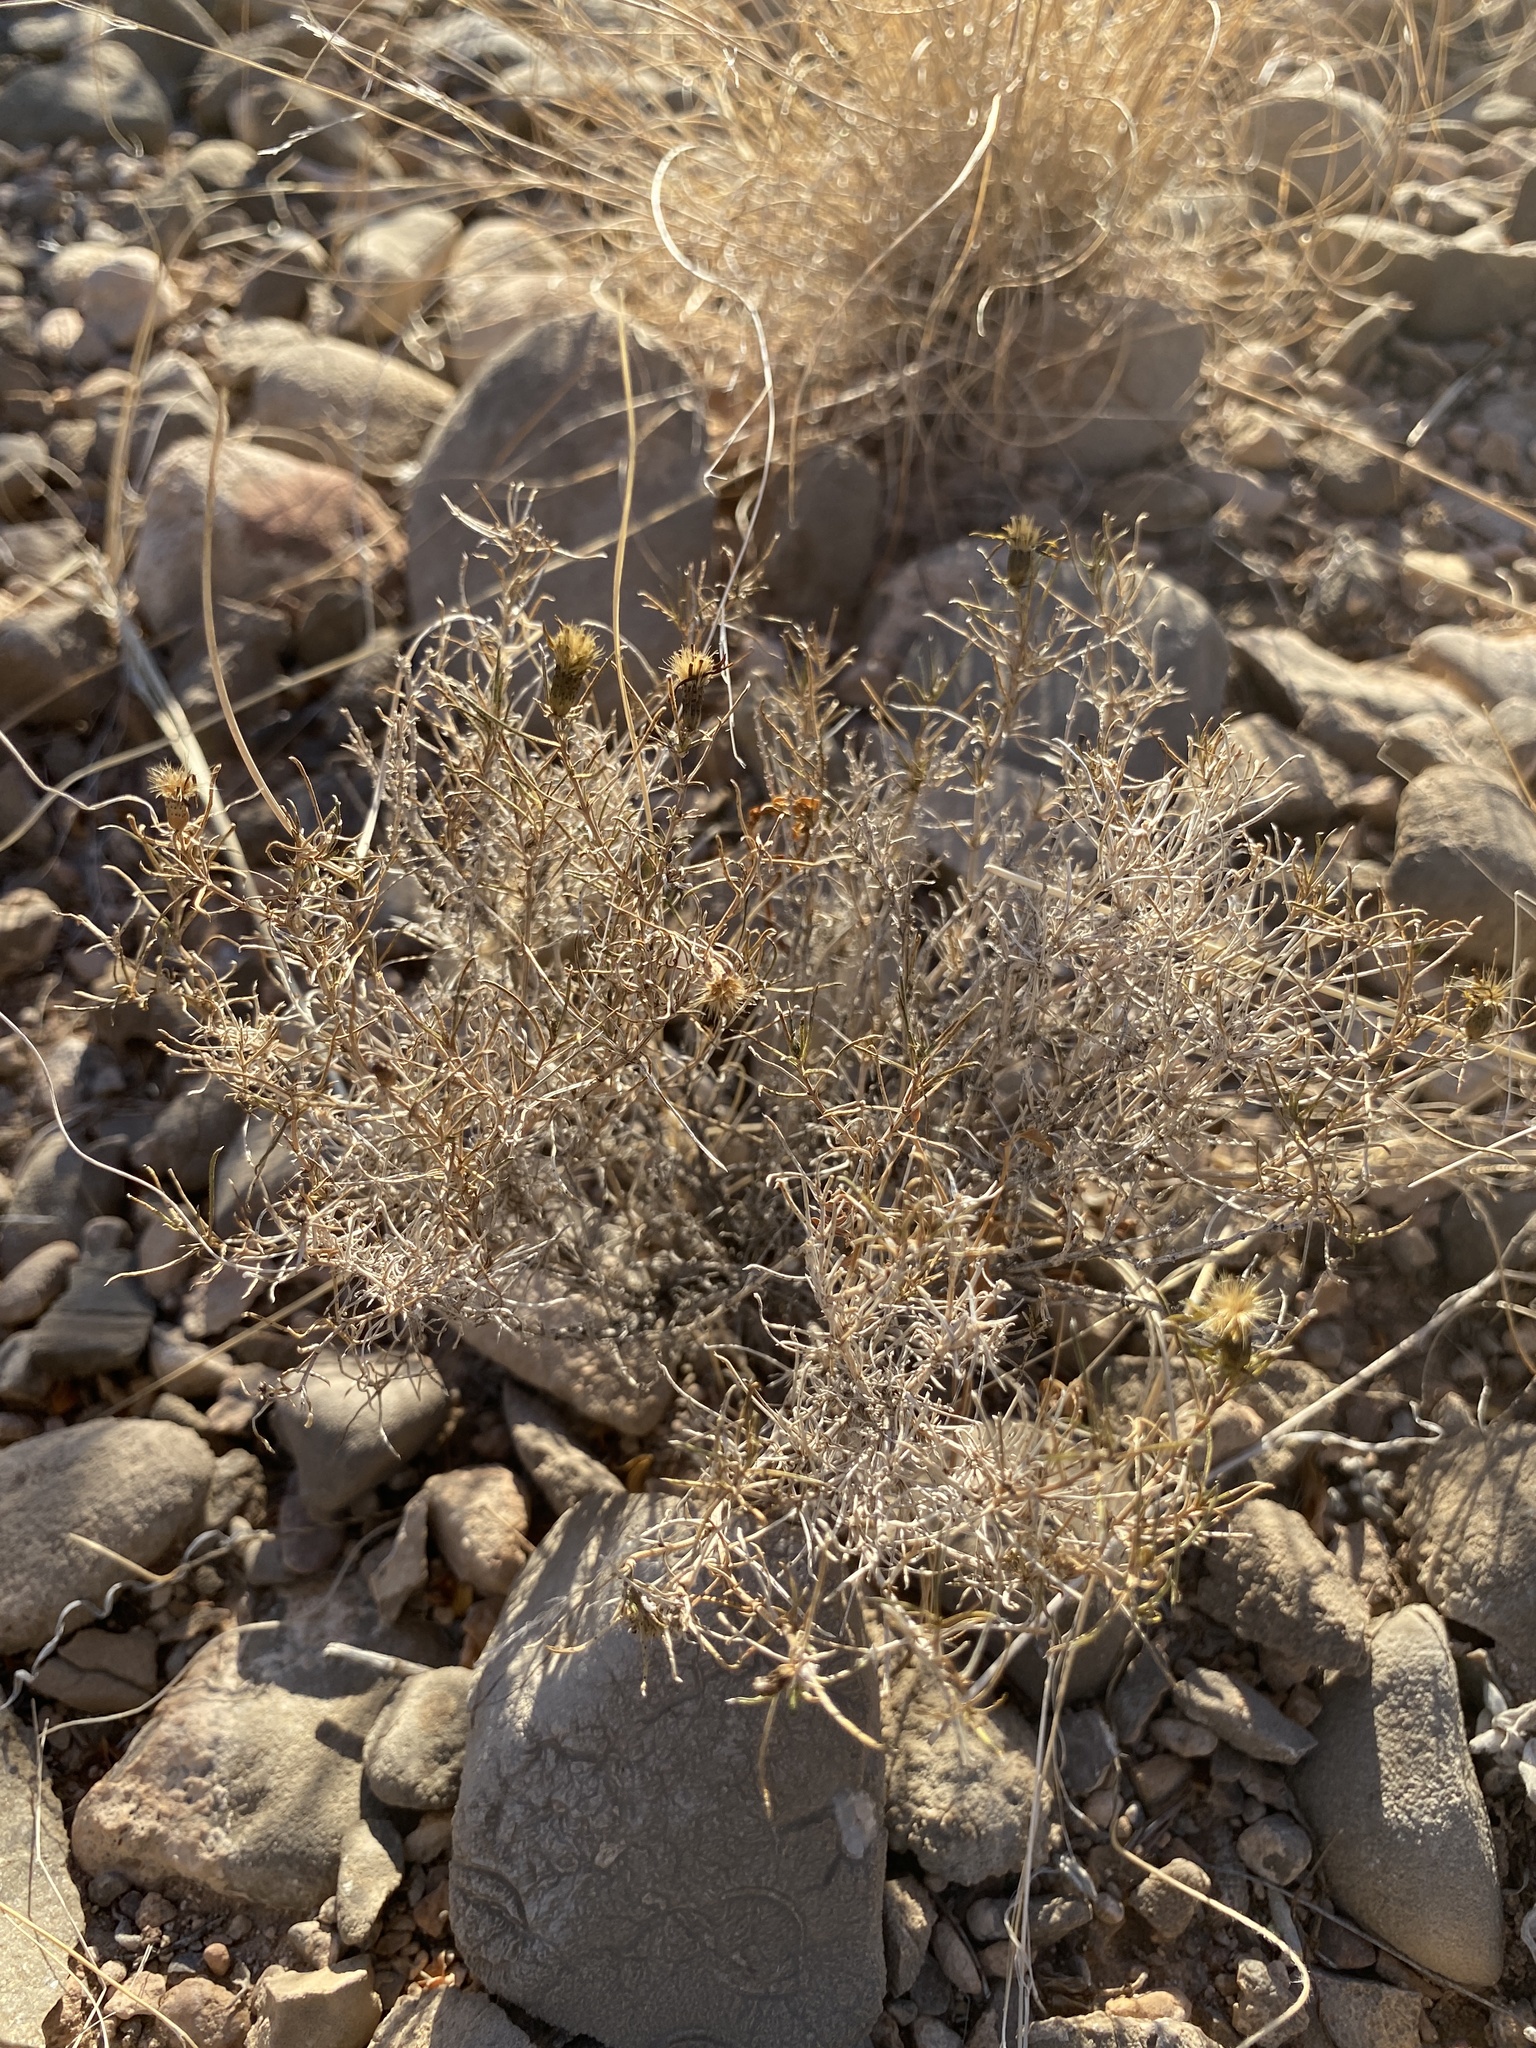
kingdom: Plantae
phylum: Tracheophyta
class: Magnoliopsida
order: Asterales
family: Asteraceae
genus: Thymophylla
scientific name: Thymophylla acerosa
